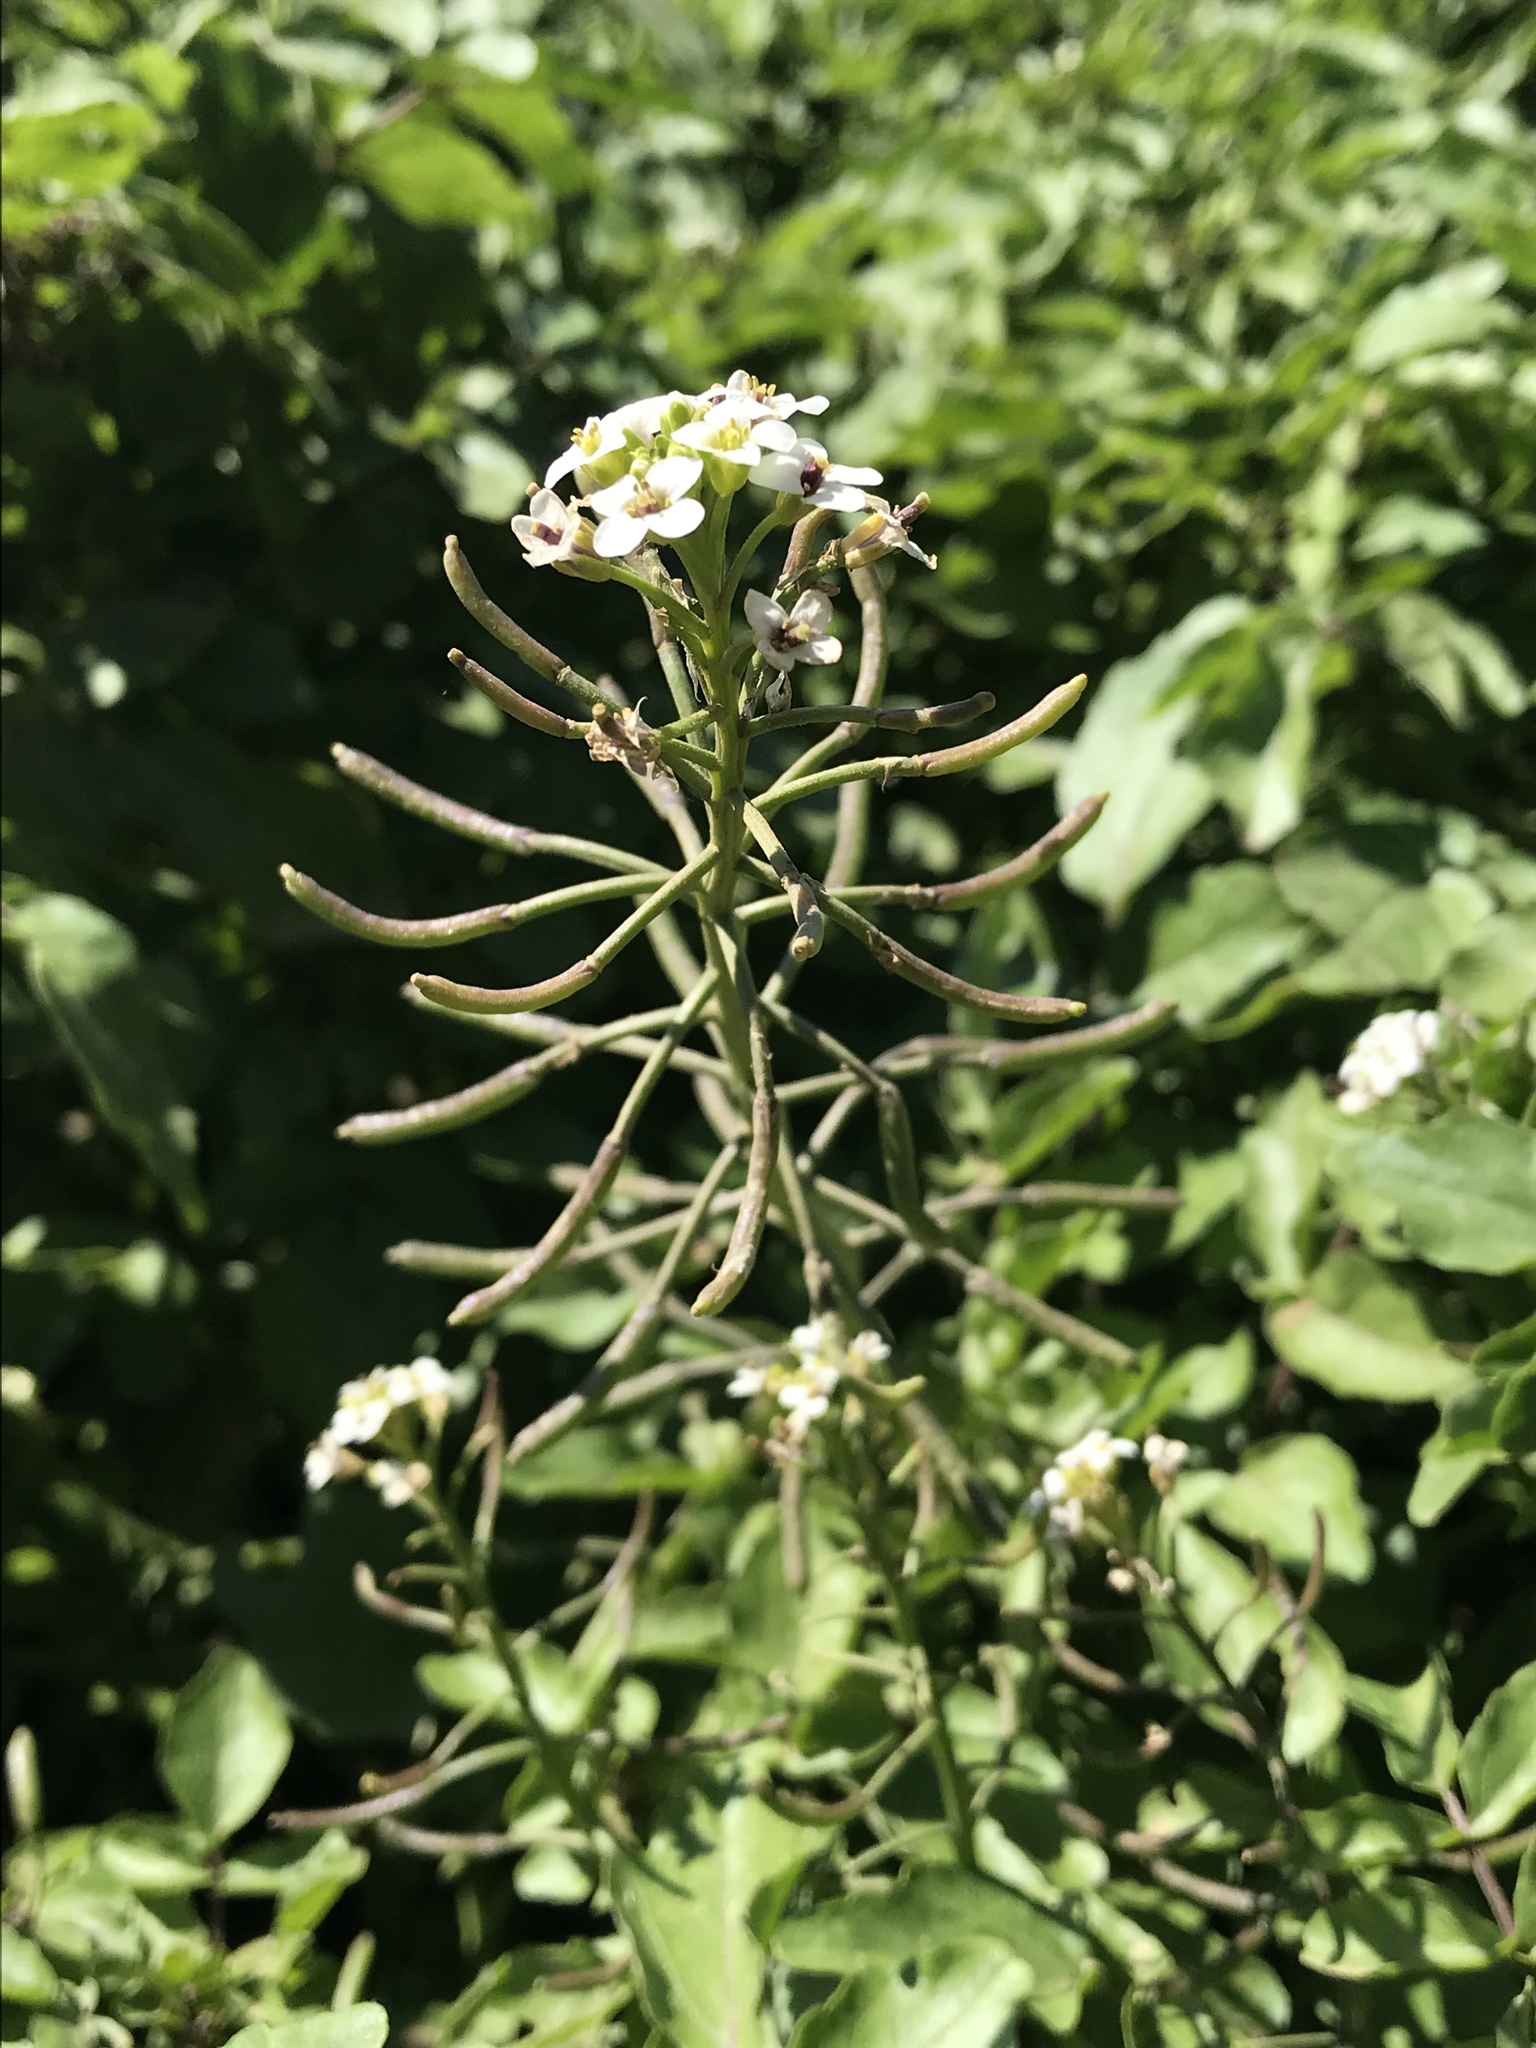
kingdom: Plantae
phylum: Tracheophyta
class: Magnoliopsida
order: Brassicales
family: Brassicaceae
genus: Nasturtium
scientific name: Nasturtium officinale
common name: Watercress
